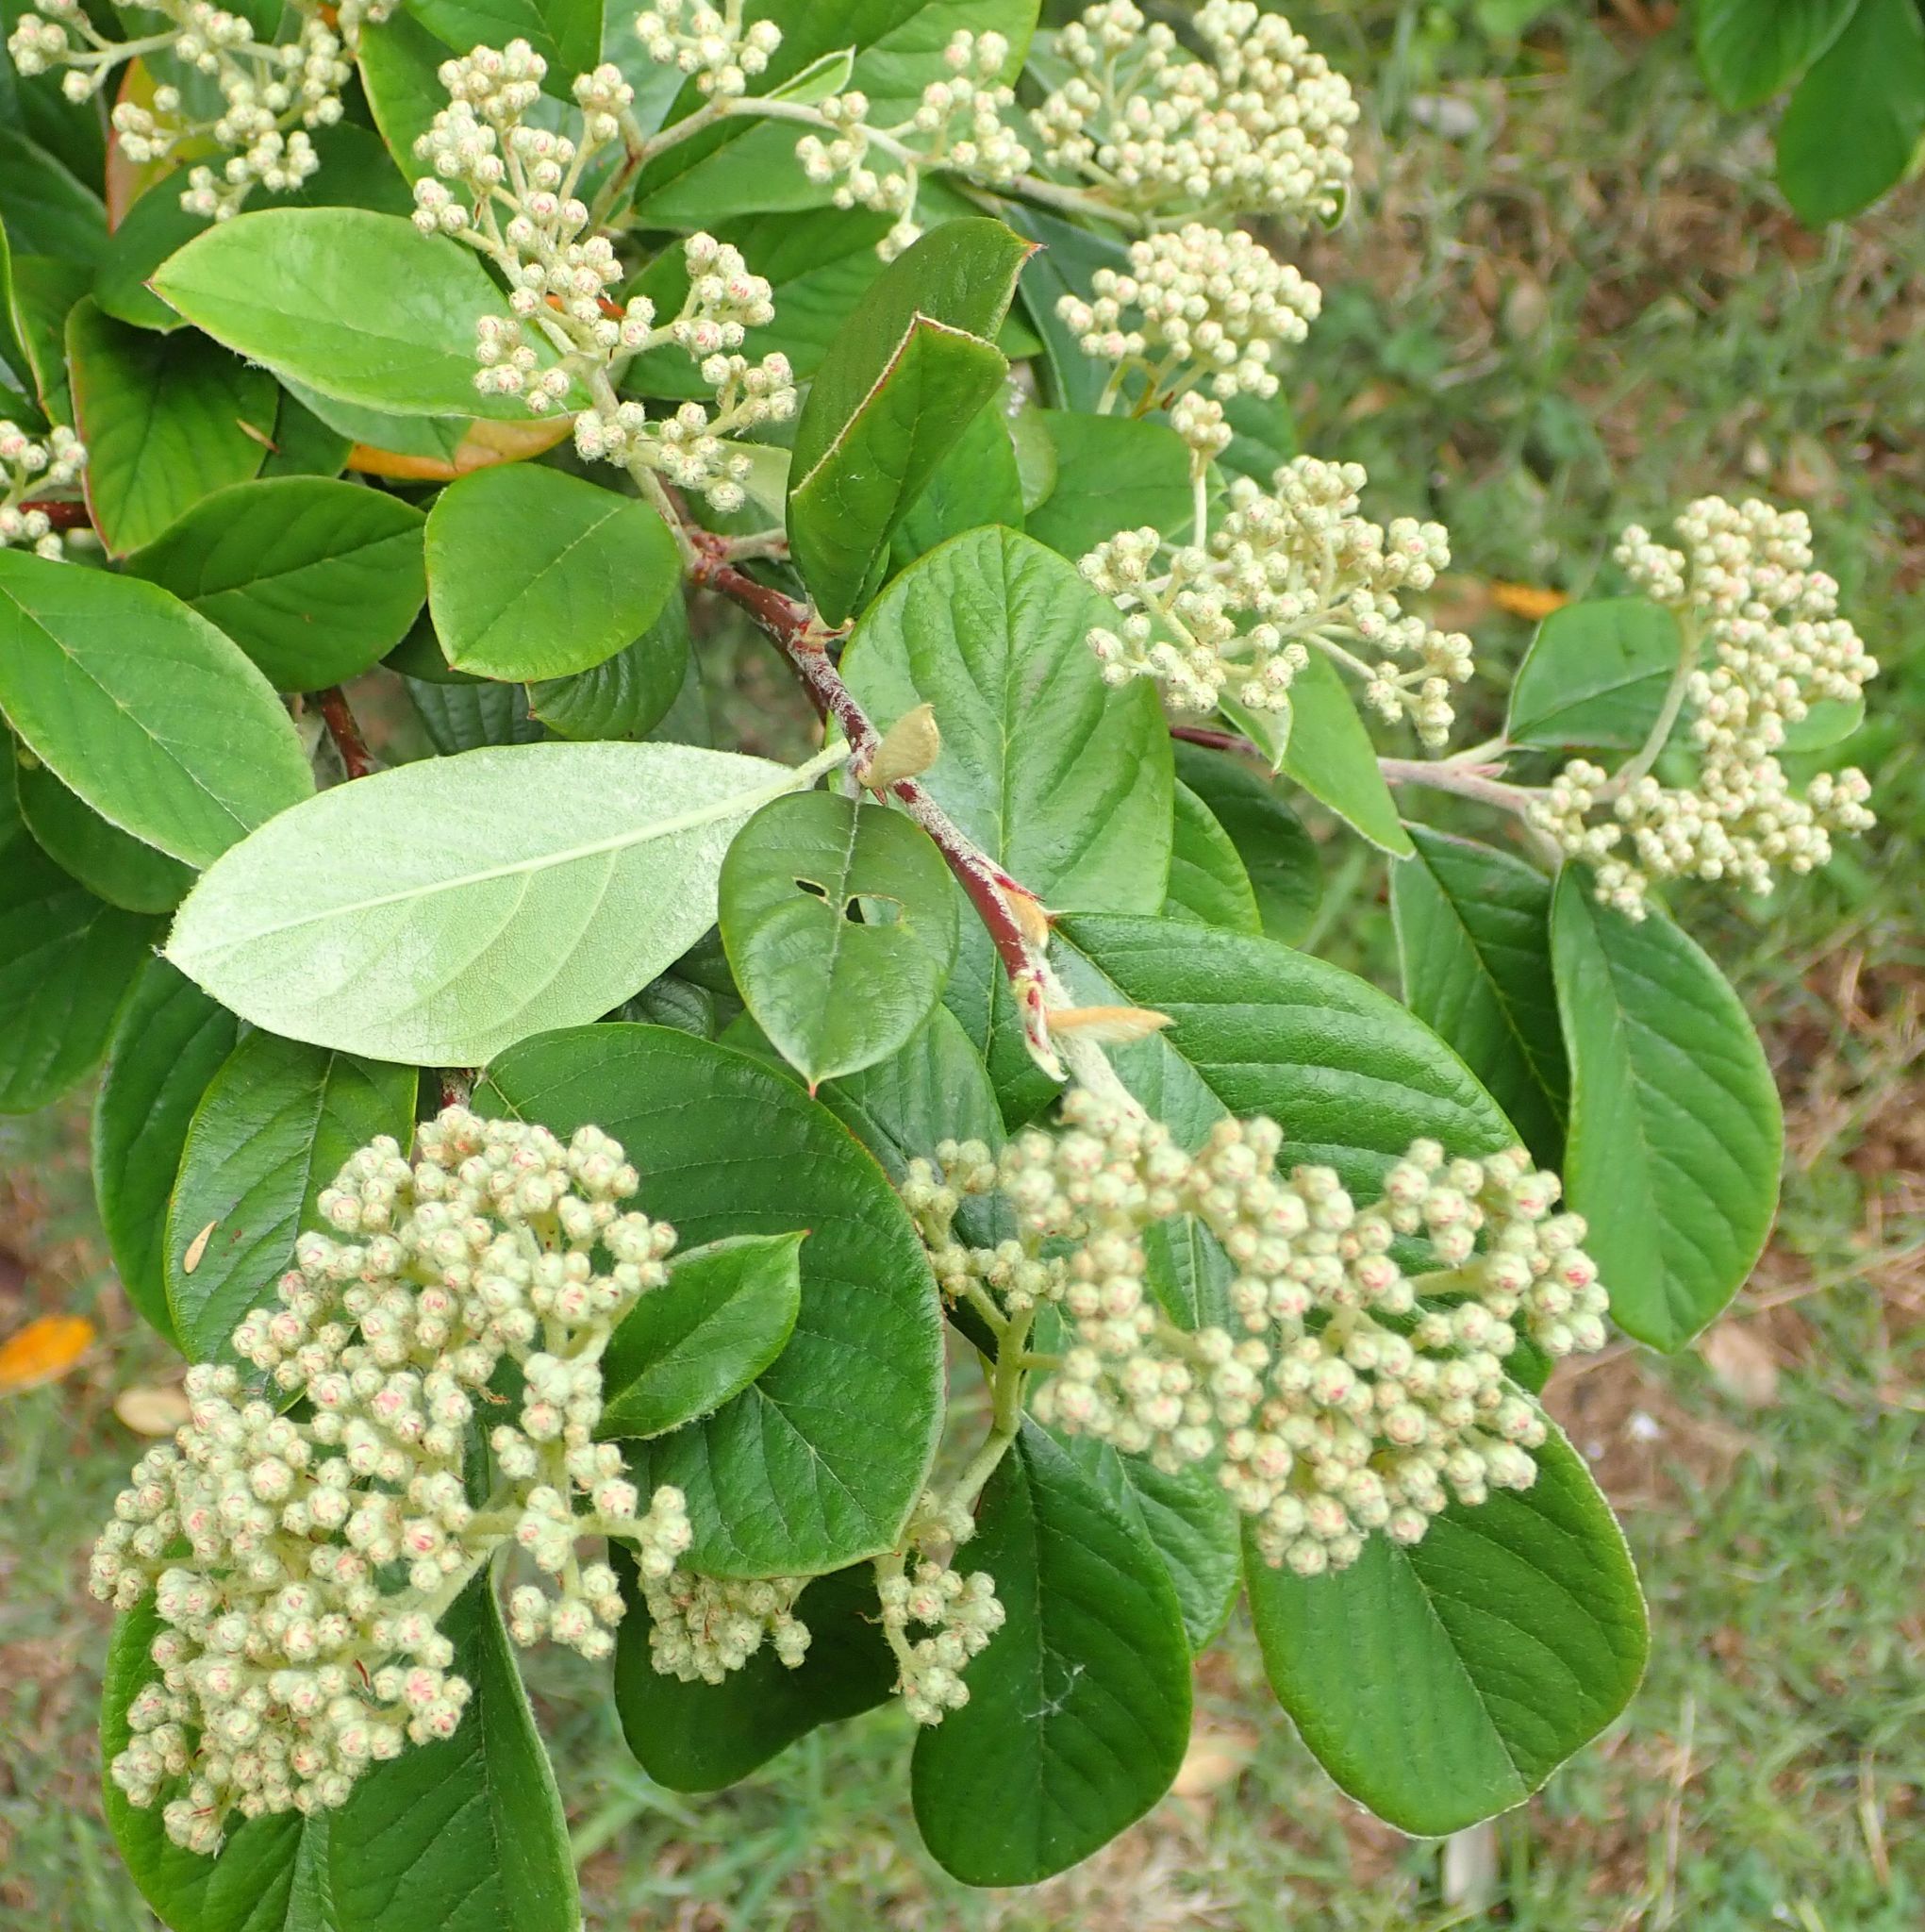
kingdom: Plantae
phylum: Tracheophyta
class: Magnoliopsida
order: Rosales
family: Rosaceae
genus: Cotoneaster
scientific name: Cotoneaster coriaceus
